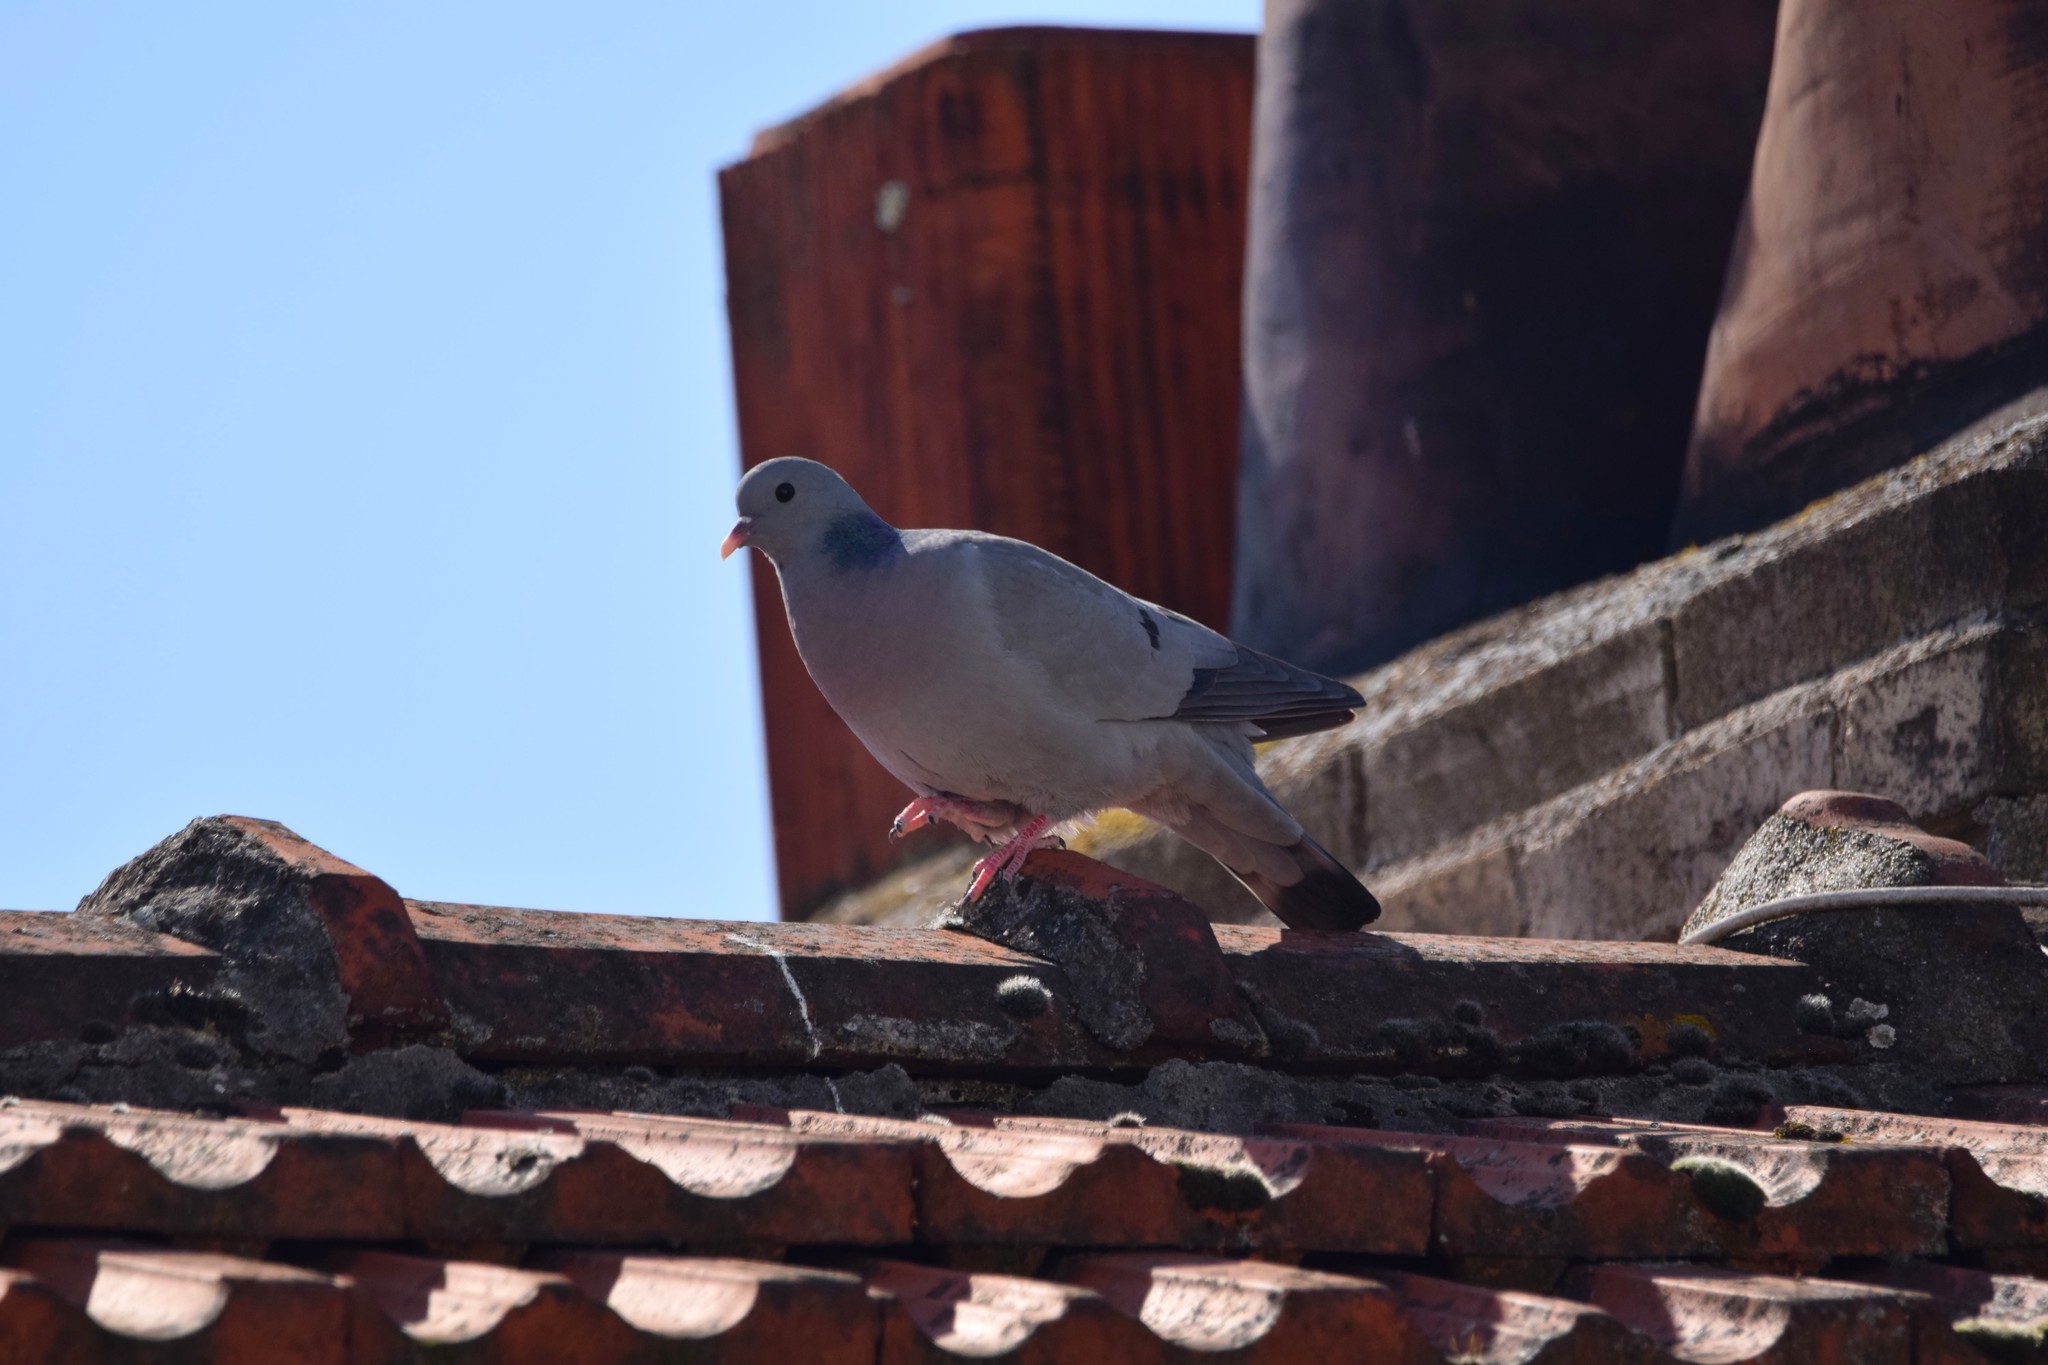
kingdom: Animalia
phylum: Chordata
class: Aves
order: Columbiformes
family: Columbidae
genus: Columba
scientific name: Columba oenas
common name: Stock dove
